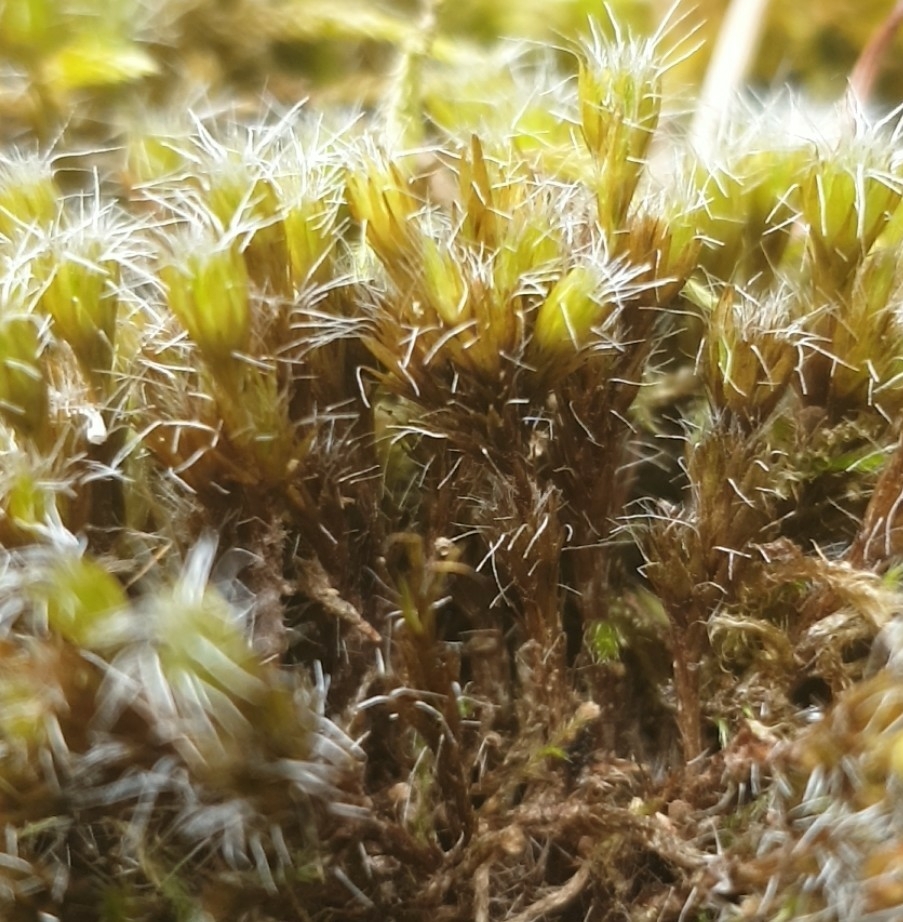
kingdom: Plantae
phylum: Bryophyta
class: Bryopsida
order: Dicranales
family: Leucobryaceae
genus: Campylopus
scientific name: Campylopus introflexus
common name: Heath star moss
